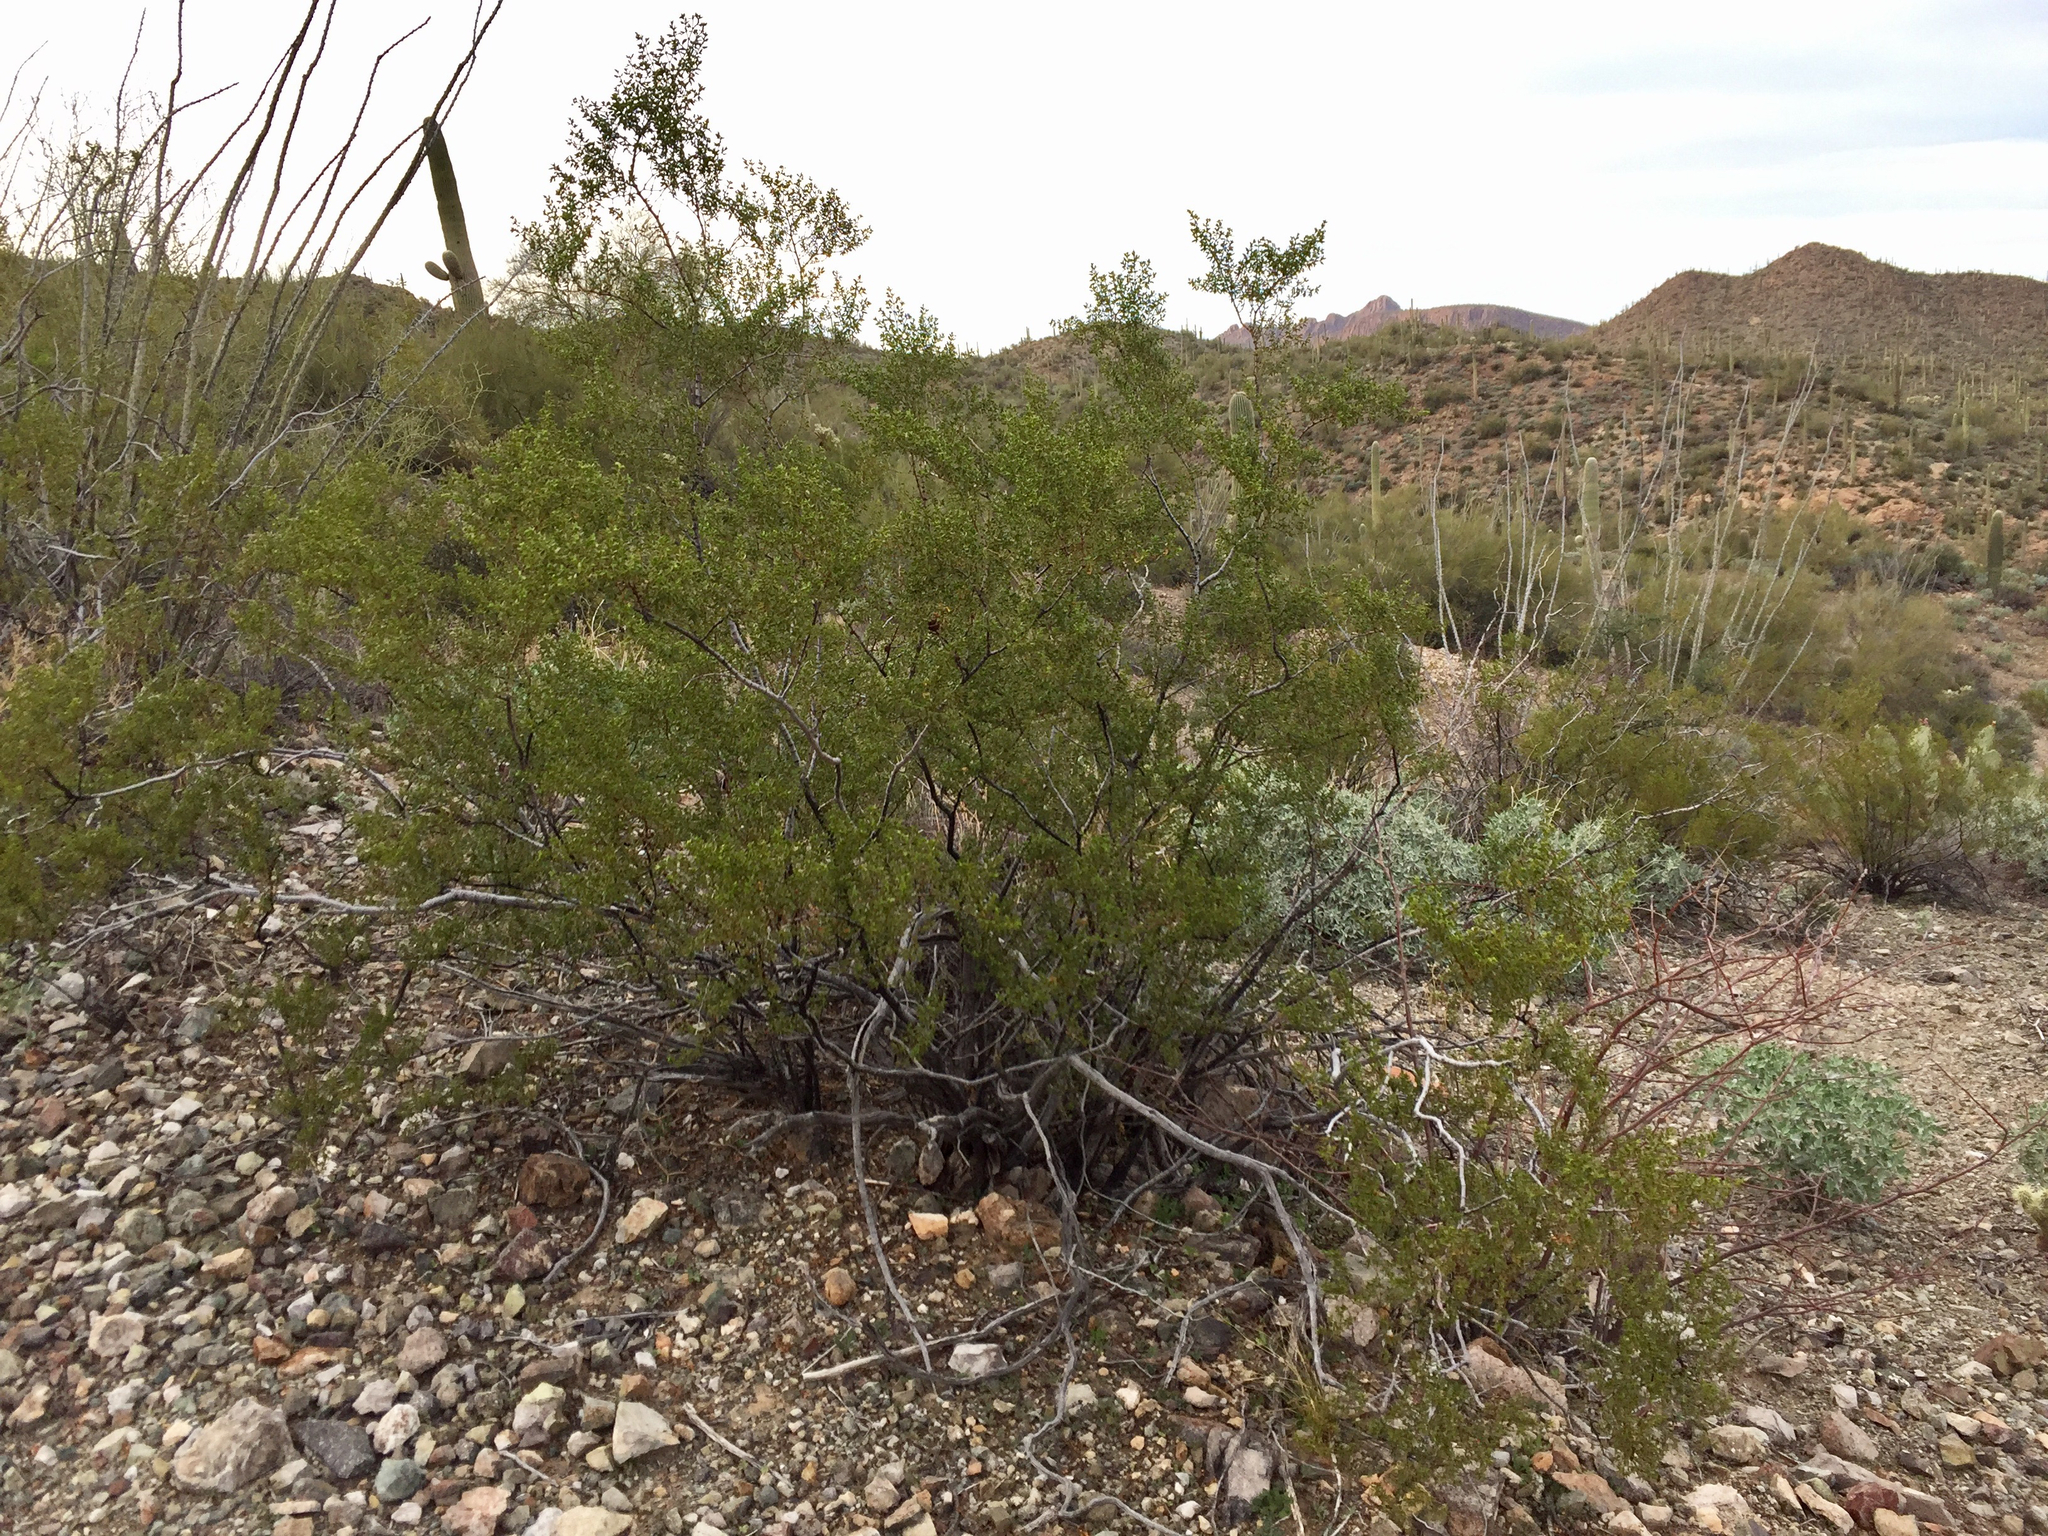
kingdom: Plantae
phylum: Tracheophyta
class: Magnoliopsida
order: Zygophyllales
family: Zygophyllaceae
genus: Larrea
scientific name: Larrea tridentata
